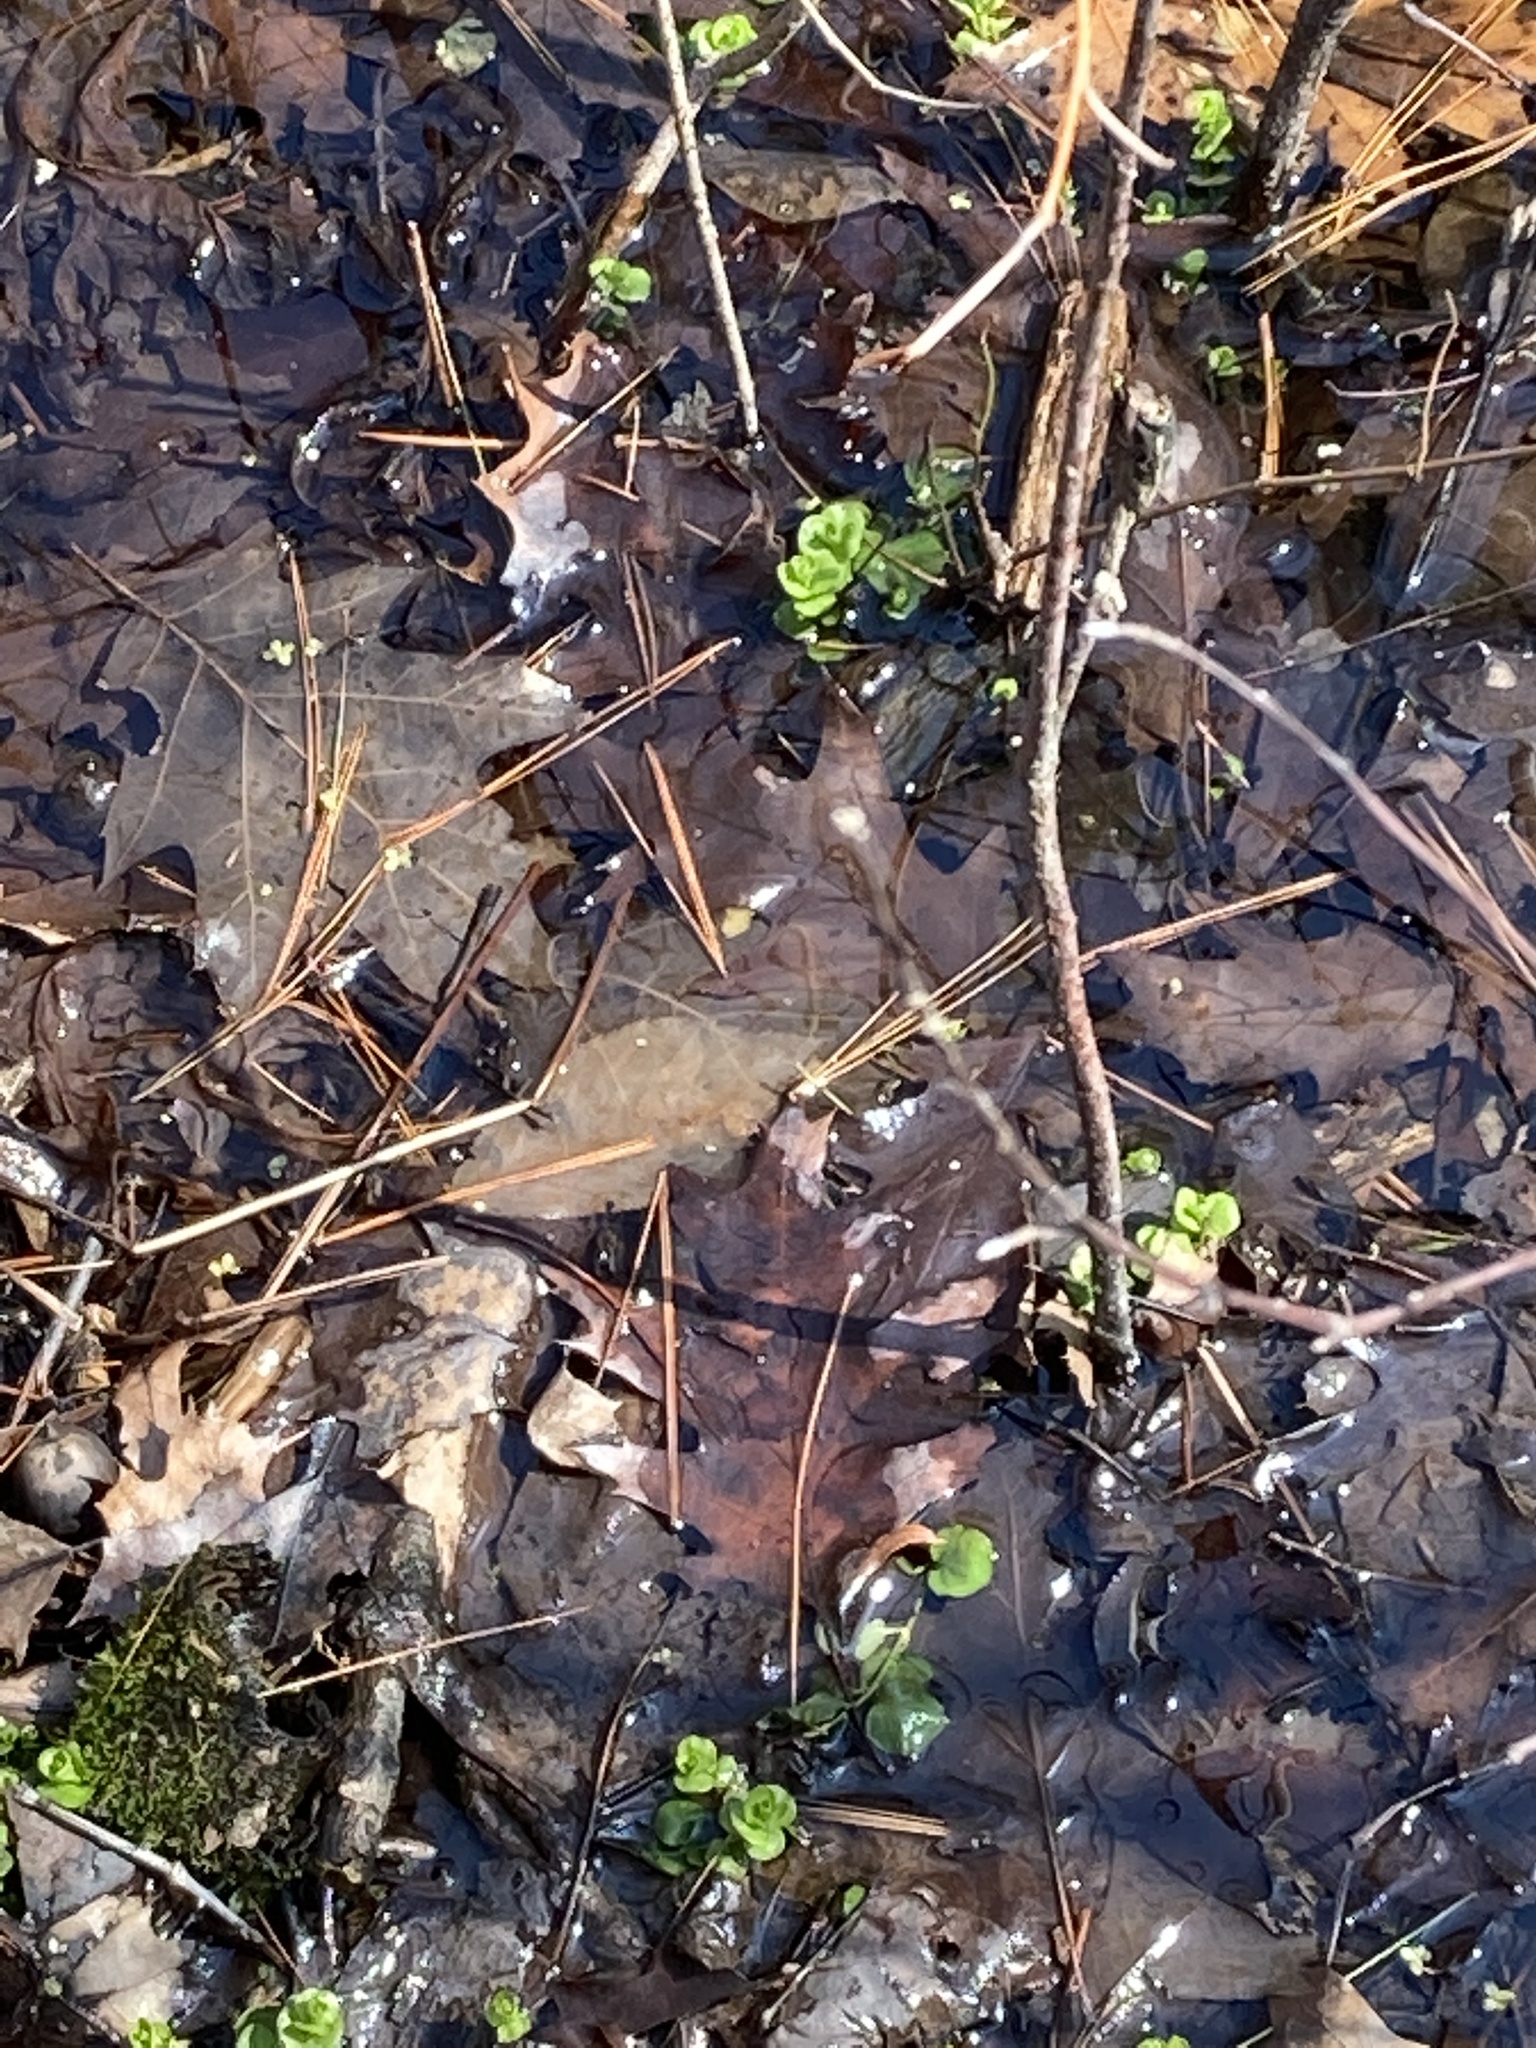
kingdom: Plantae
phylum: Tracheophyta
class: Magnoliopsida
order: Ericales
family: Primulaceae
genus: Lysimachia
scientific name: Lysimachia nummularia
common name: Moneywort
